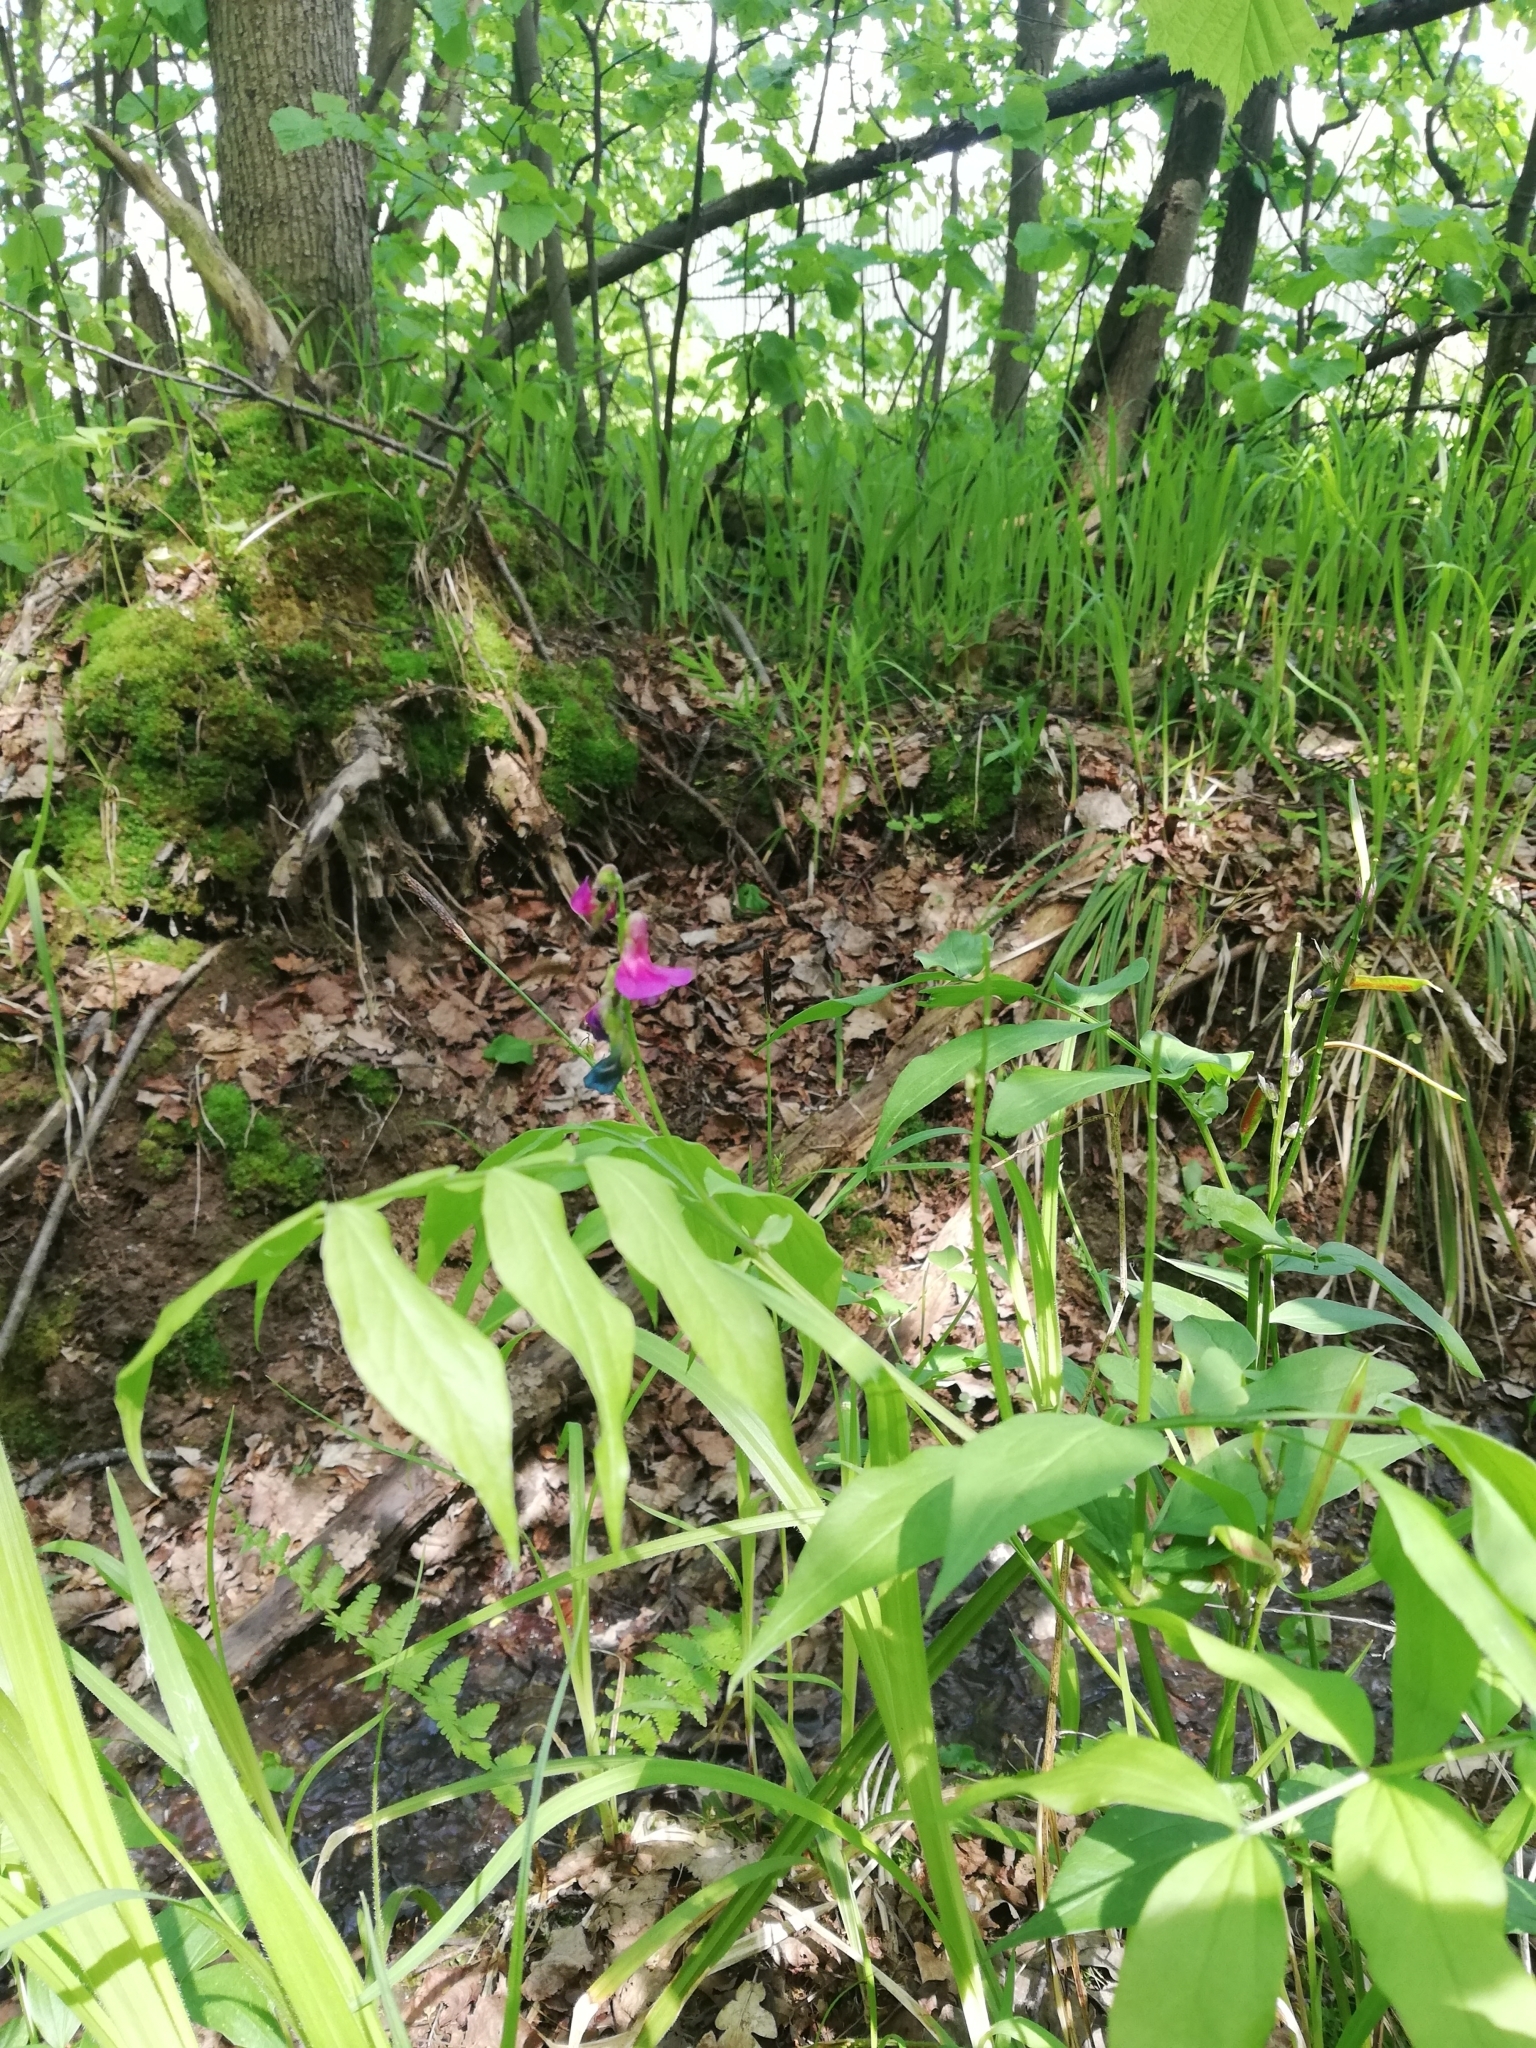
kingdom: Plantae
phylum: Tracheophyta
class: Magnoliopsida
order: Fabales
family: Fabaceae
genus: Lathyrus
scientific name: Lathyrus vernus
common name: Spring pea
